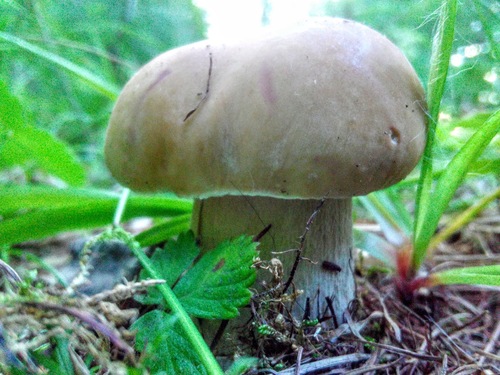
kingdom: Fungi
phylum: Basidiomycota
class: Agaricomycetes
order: Boletales
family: Boletaceae
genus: Boletus
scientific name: Boletus edulis
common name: Cep
